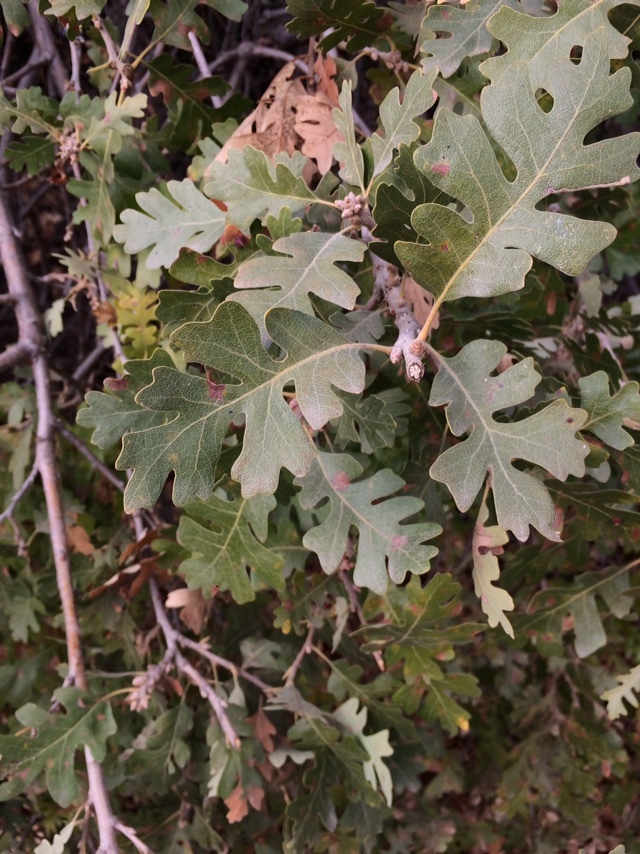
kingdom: Plantae
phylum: Tracheophyta
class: Magnoliopsida
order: Fagales
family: Fagaceae
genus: Quercus
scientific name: Quercus lobata
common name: Valley oak
